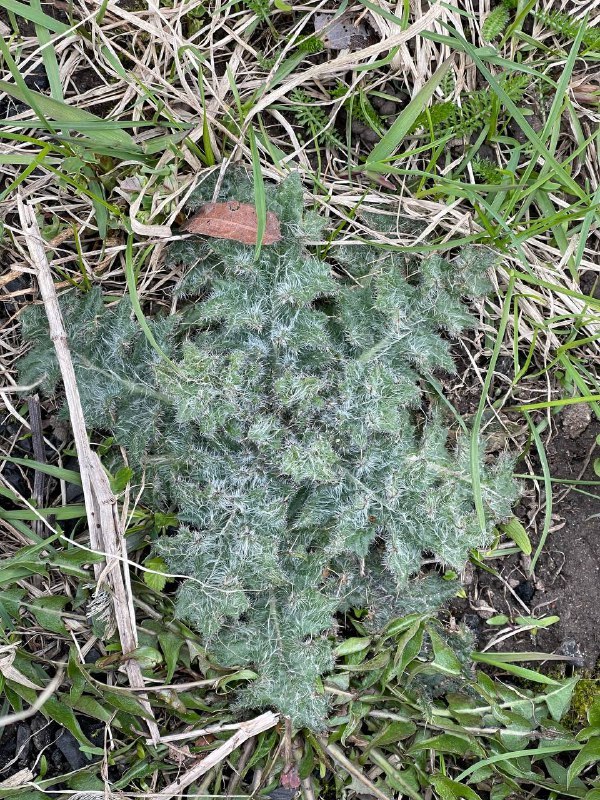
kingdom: Plantae
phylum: Tracheophyta
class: Magnoliopsida
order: Asterales
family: Asteraceae
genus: Cirsium
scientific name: Cirsium vulgare
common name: Bull thistle
